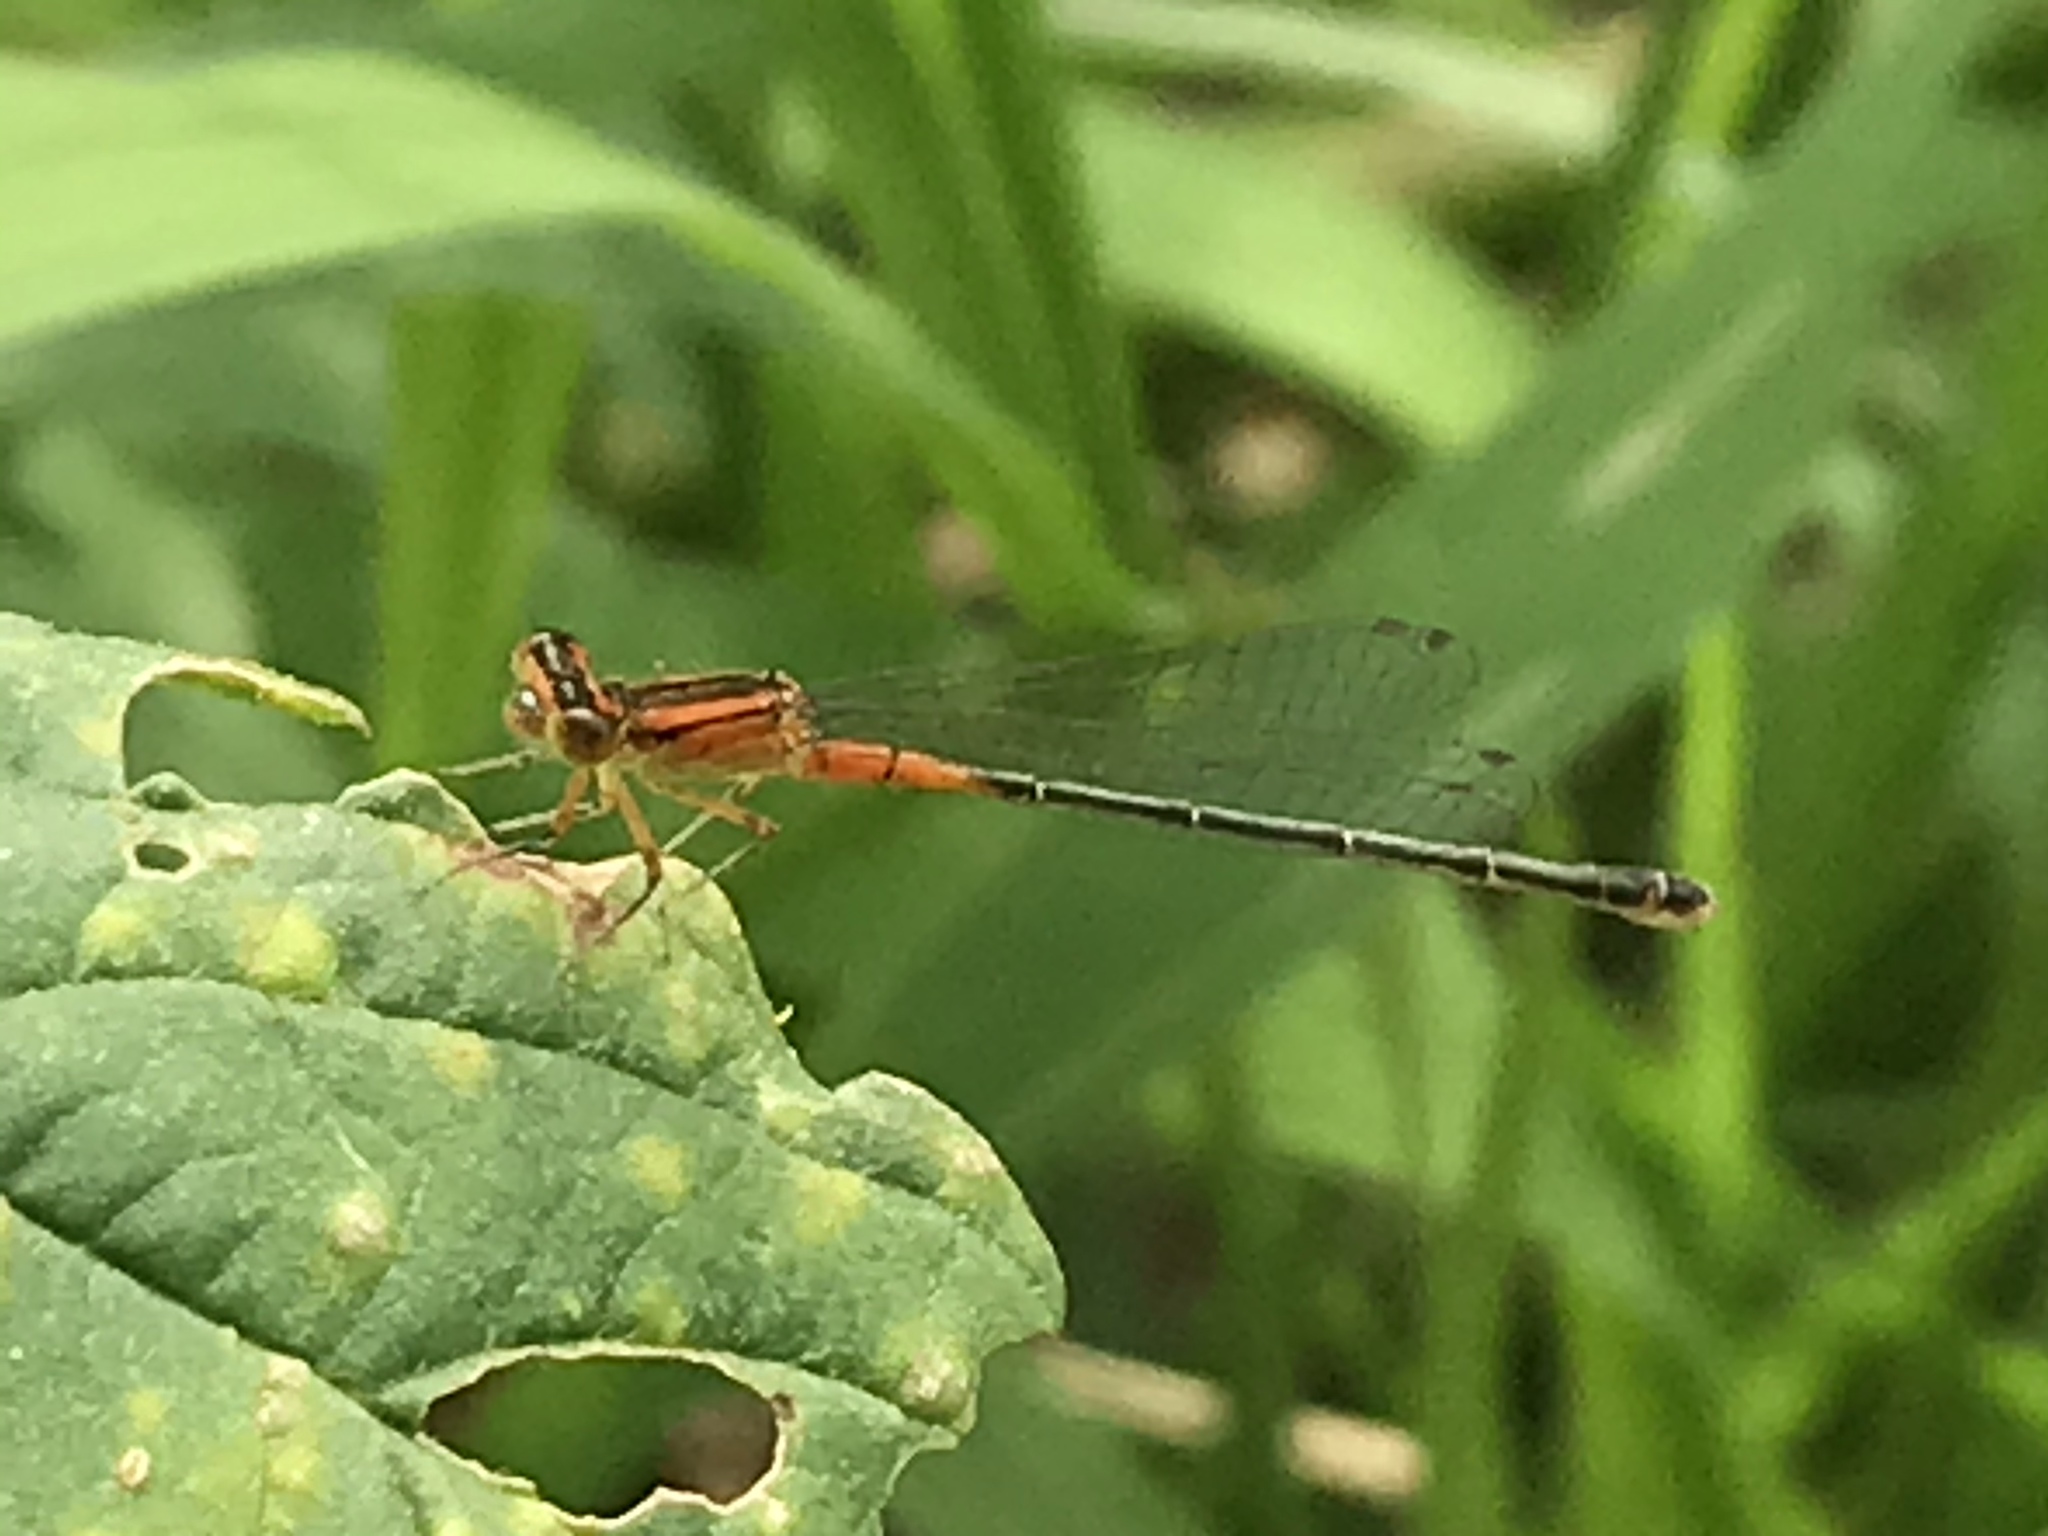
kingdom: Animalia
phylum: Arthropoda
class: Insecta
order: Odonata
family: Coenagrionidae
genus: Ischnura
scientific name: Ischnura verticalis
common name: Eastern forktail
